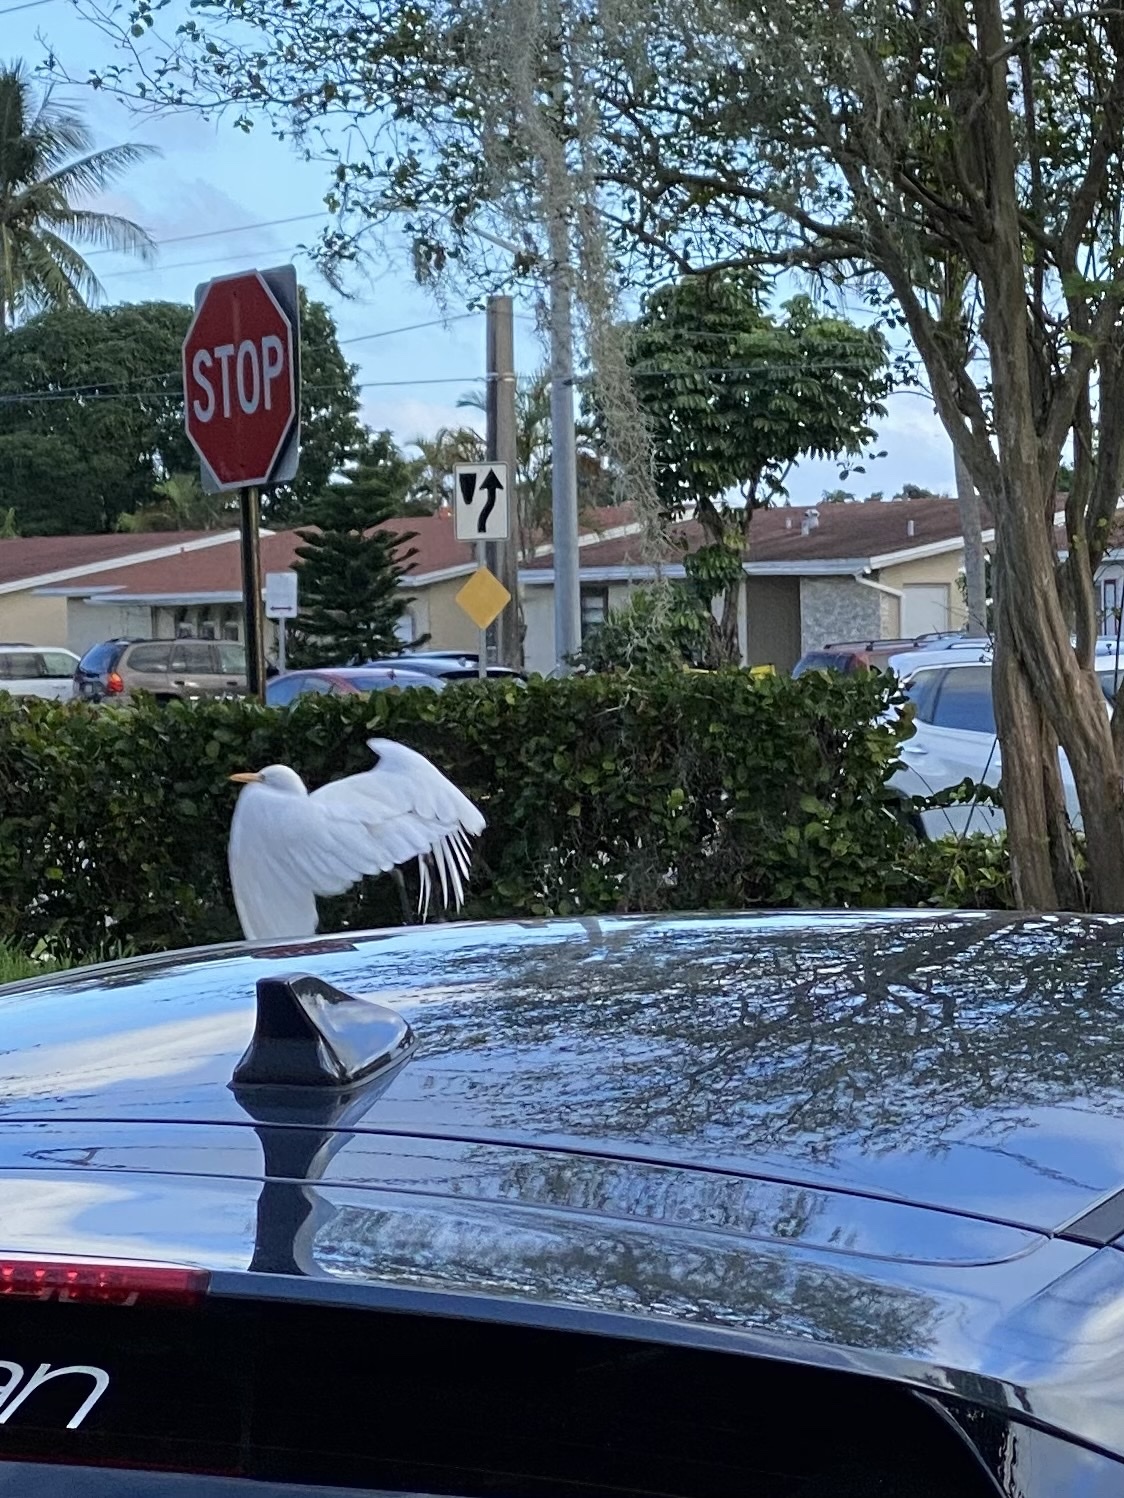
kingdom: Animalia
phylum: Chordata
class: Aves
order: Pelecaniformes
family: Ardeidae
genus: Bubulcus
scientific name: Bubulcus ibis
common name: Cattle egret
